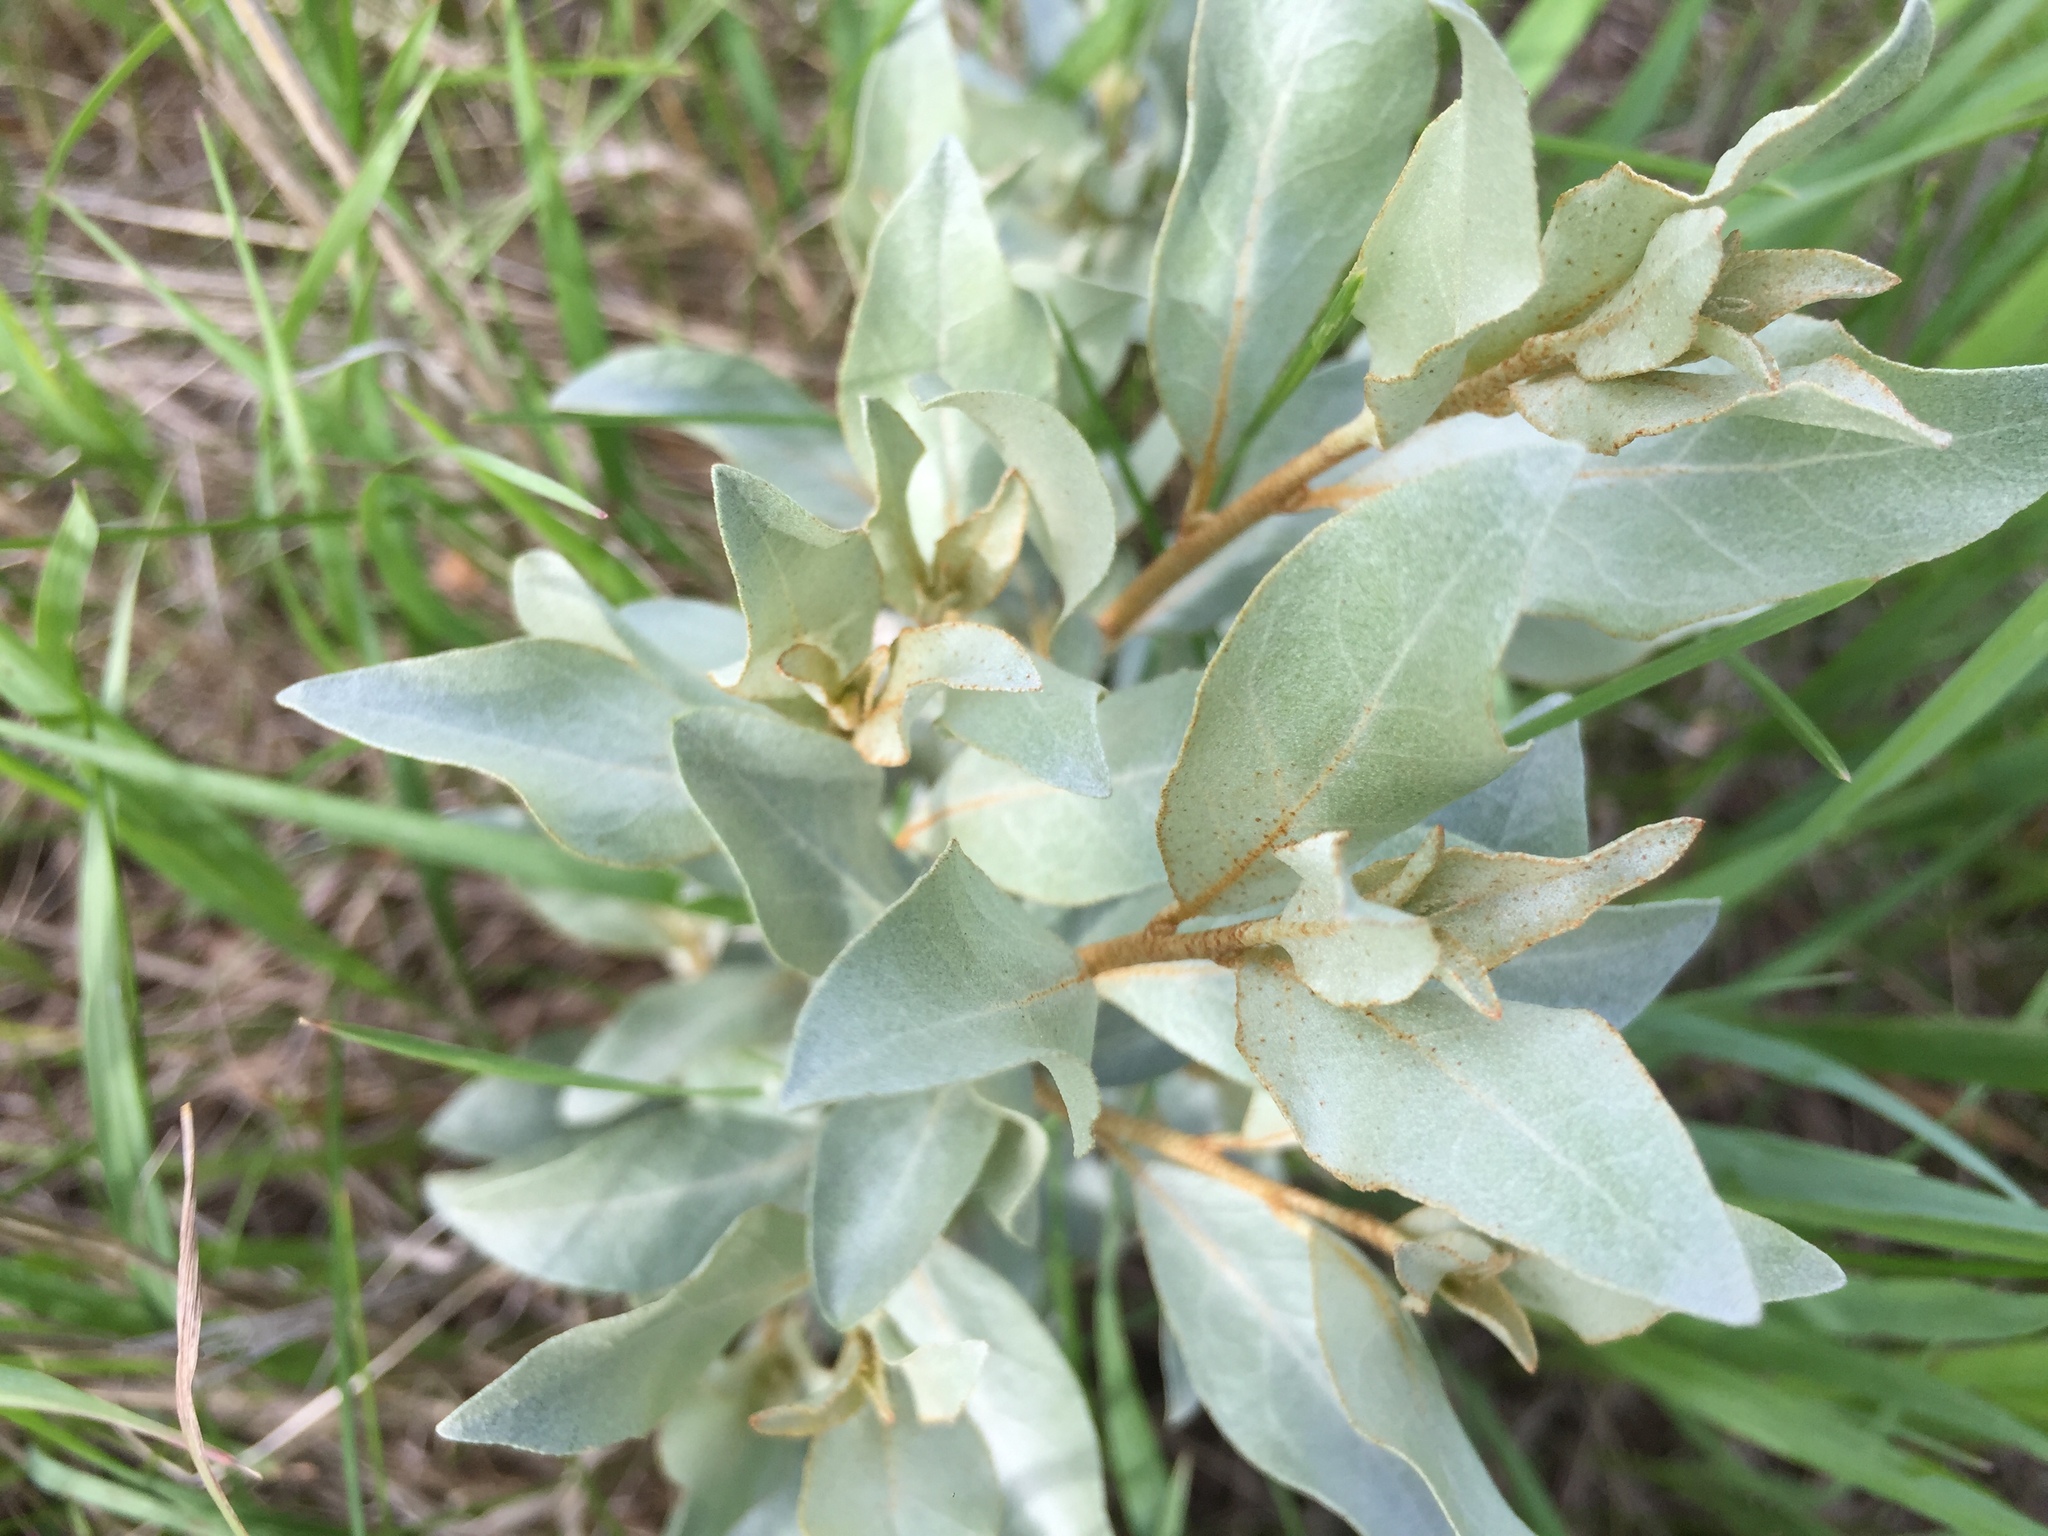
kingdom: Plantae
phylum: Tracheophyta
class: Magnoliopsida
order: Rosales
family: Elaeagnaceae
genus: Elaeagnus
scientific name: Elaeagnus commutata
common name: Silverberry
